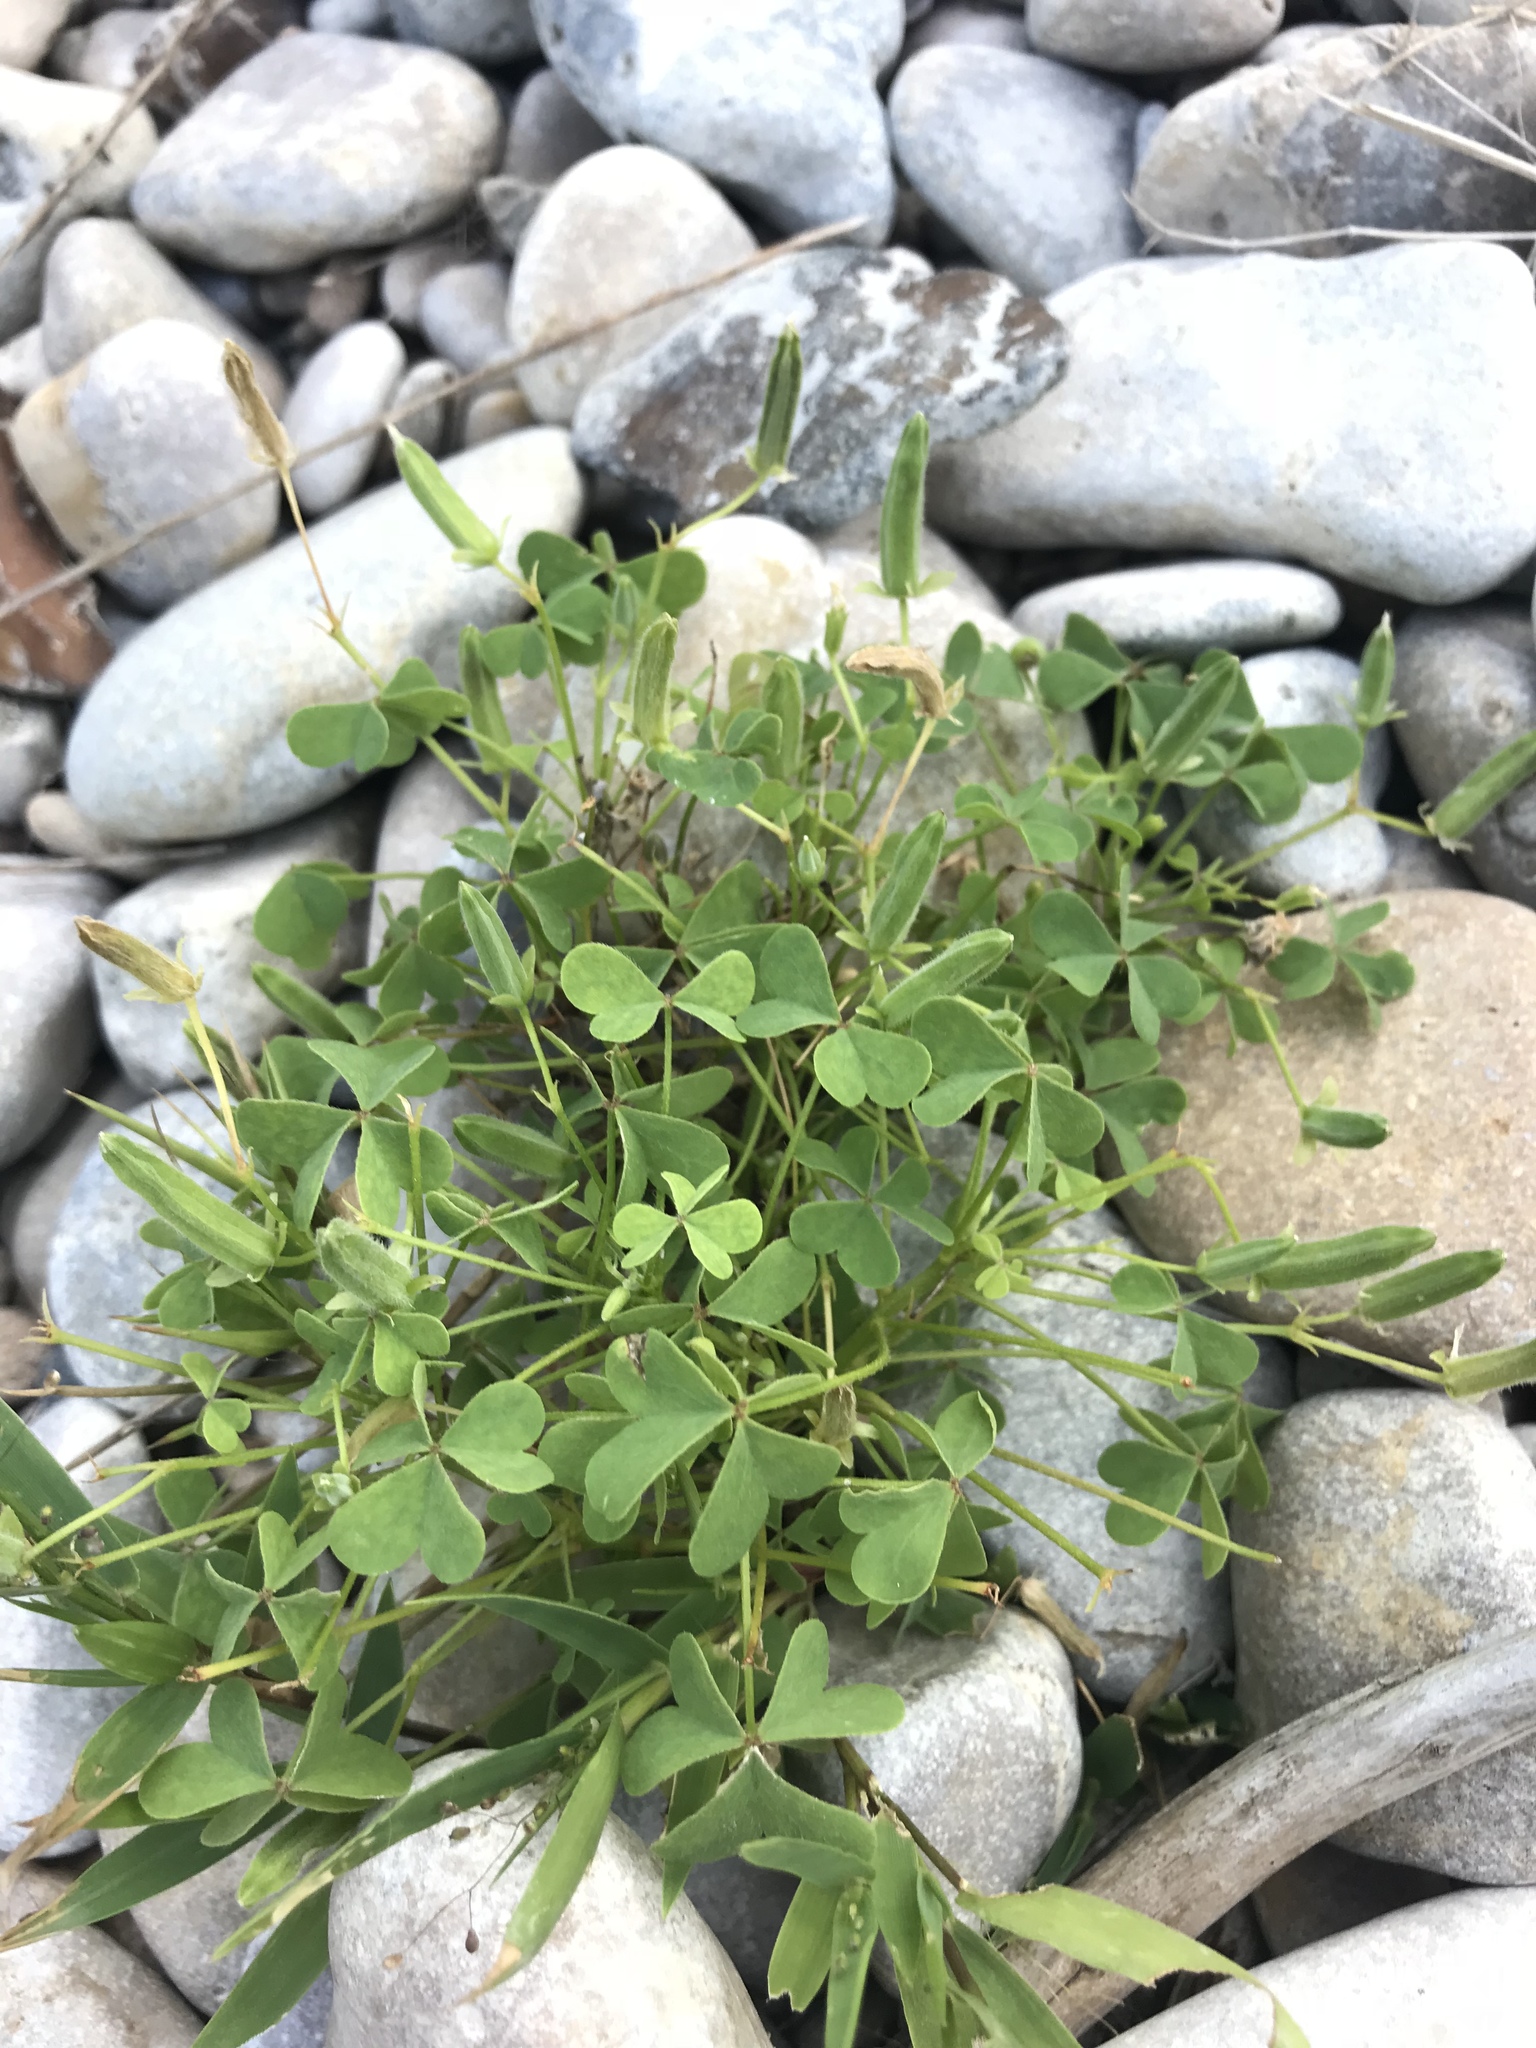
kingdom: Plantae
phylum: Tracheophyta
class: Magnoliopsida
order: Oxalidales
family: Oxalidaceae
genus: Oxalis
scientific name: Oxalis dillenii
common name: Sussex yellow-sorrel
